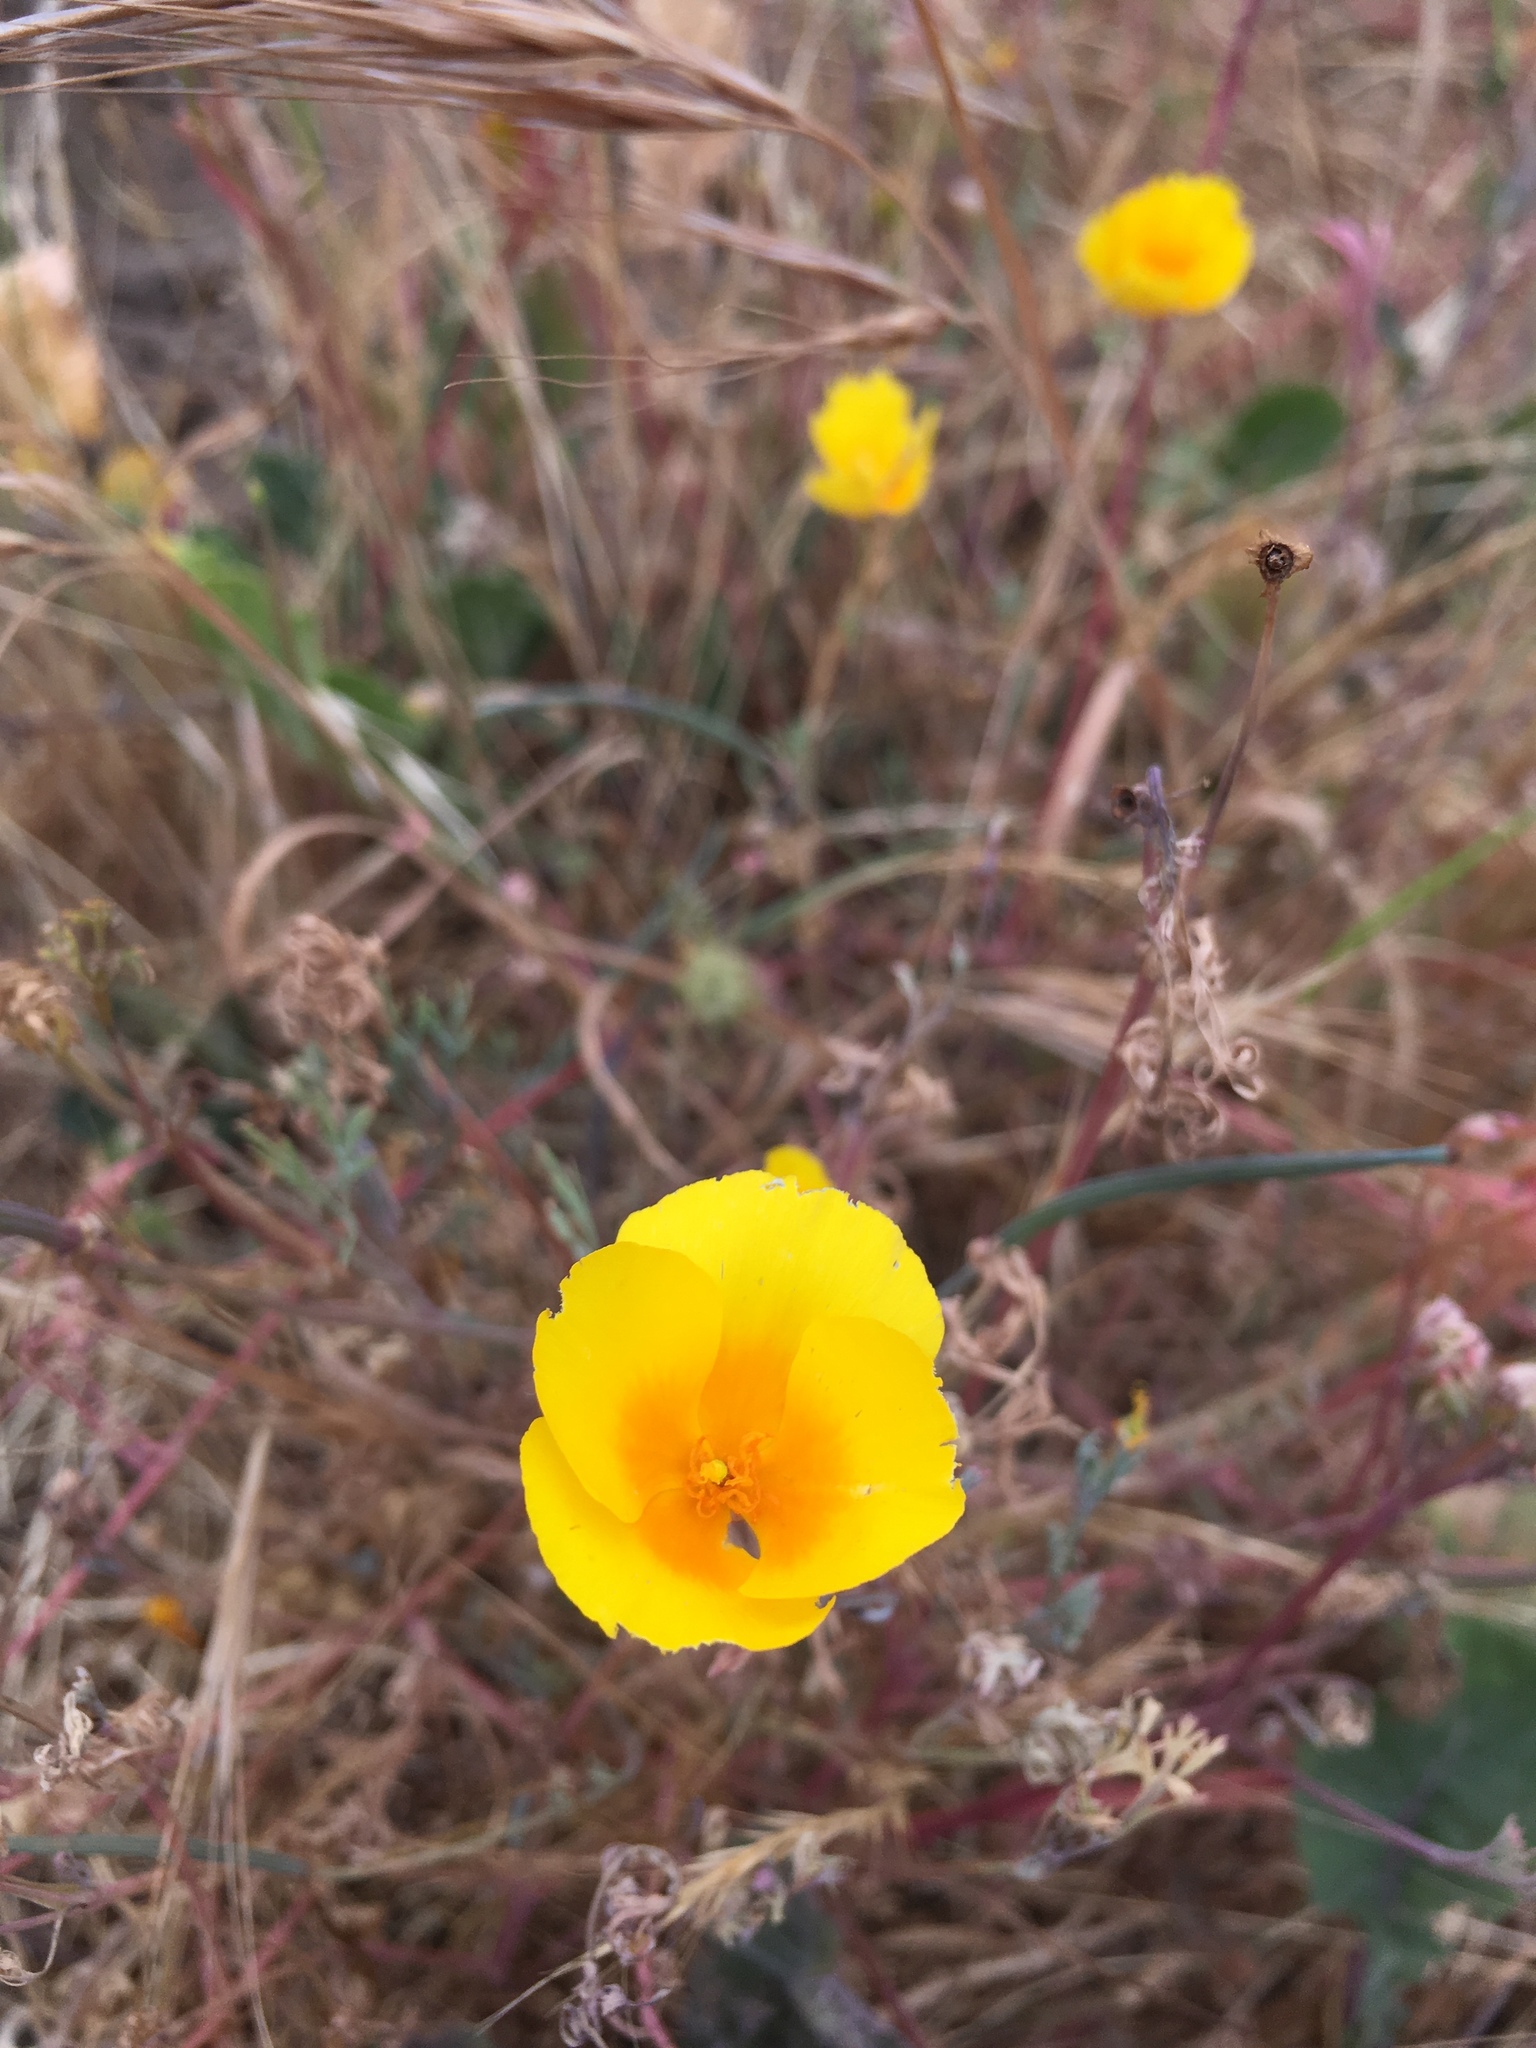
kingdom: Plantae
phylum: Tracheophyta
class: Magnoliopsida
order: Ranunculales
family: Papaveraceae
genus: Eschscholzia
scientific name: Eschscholzia californica
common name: California poppy
